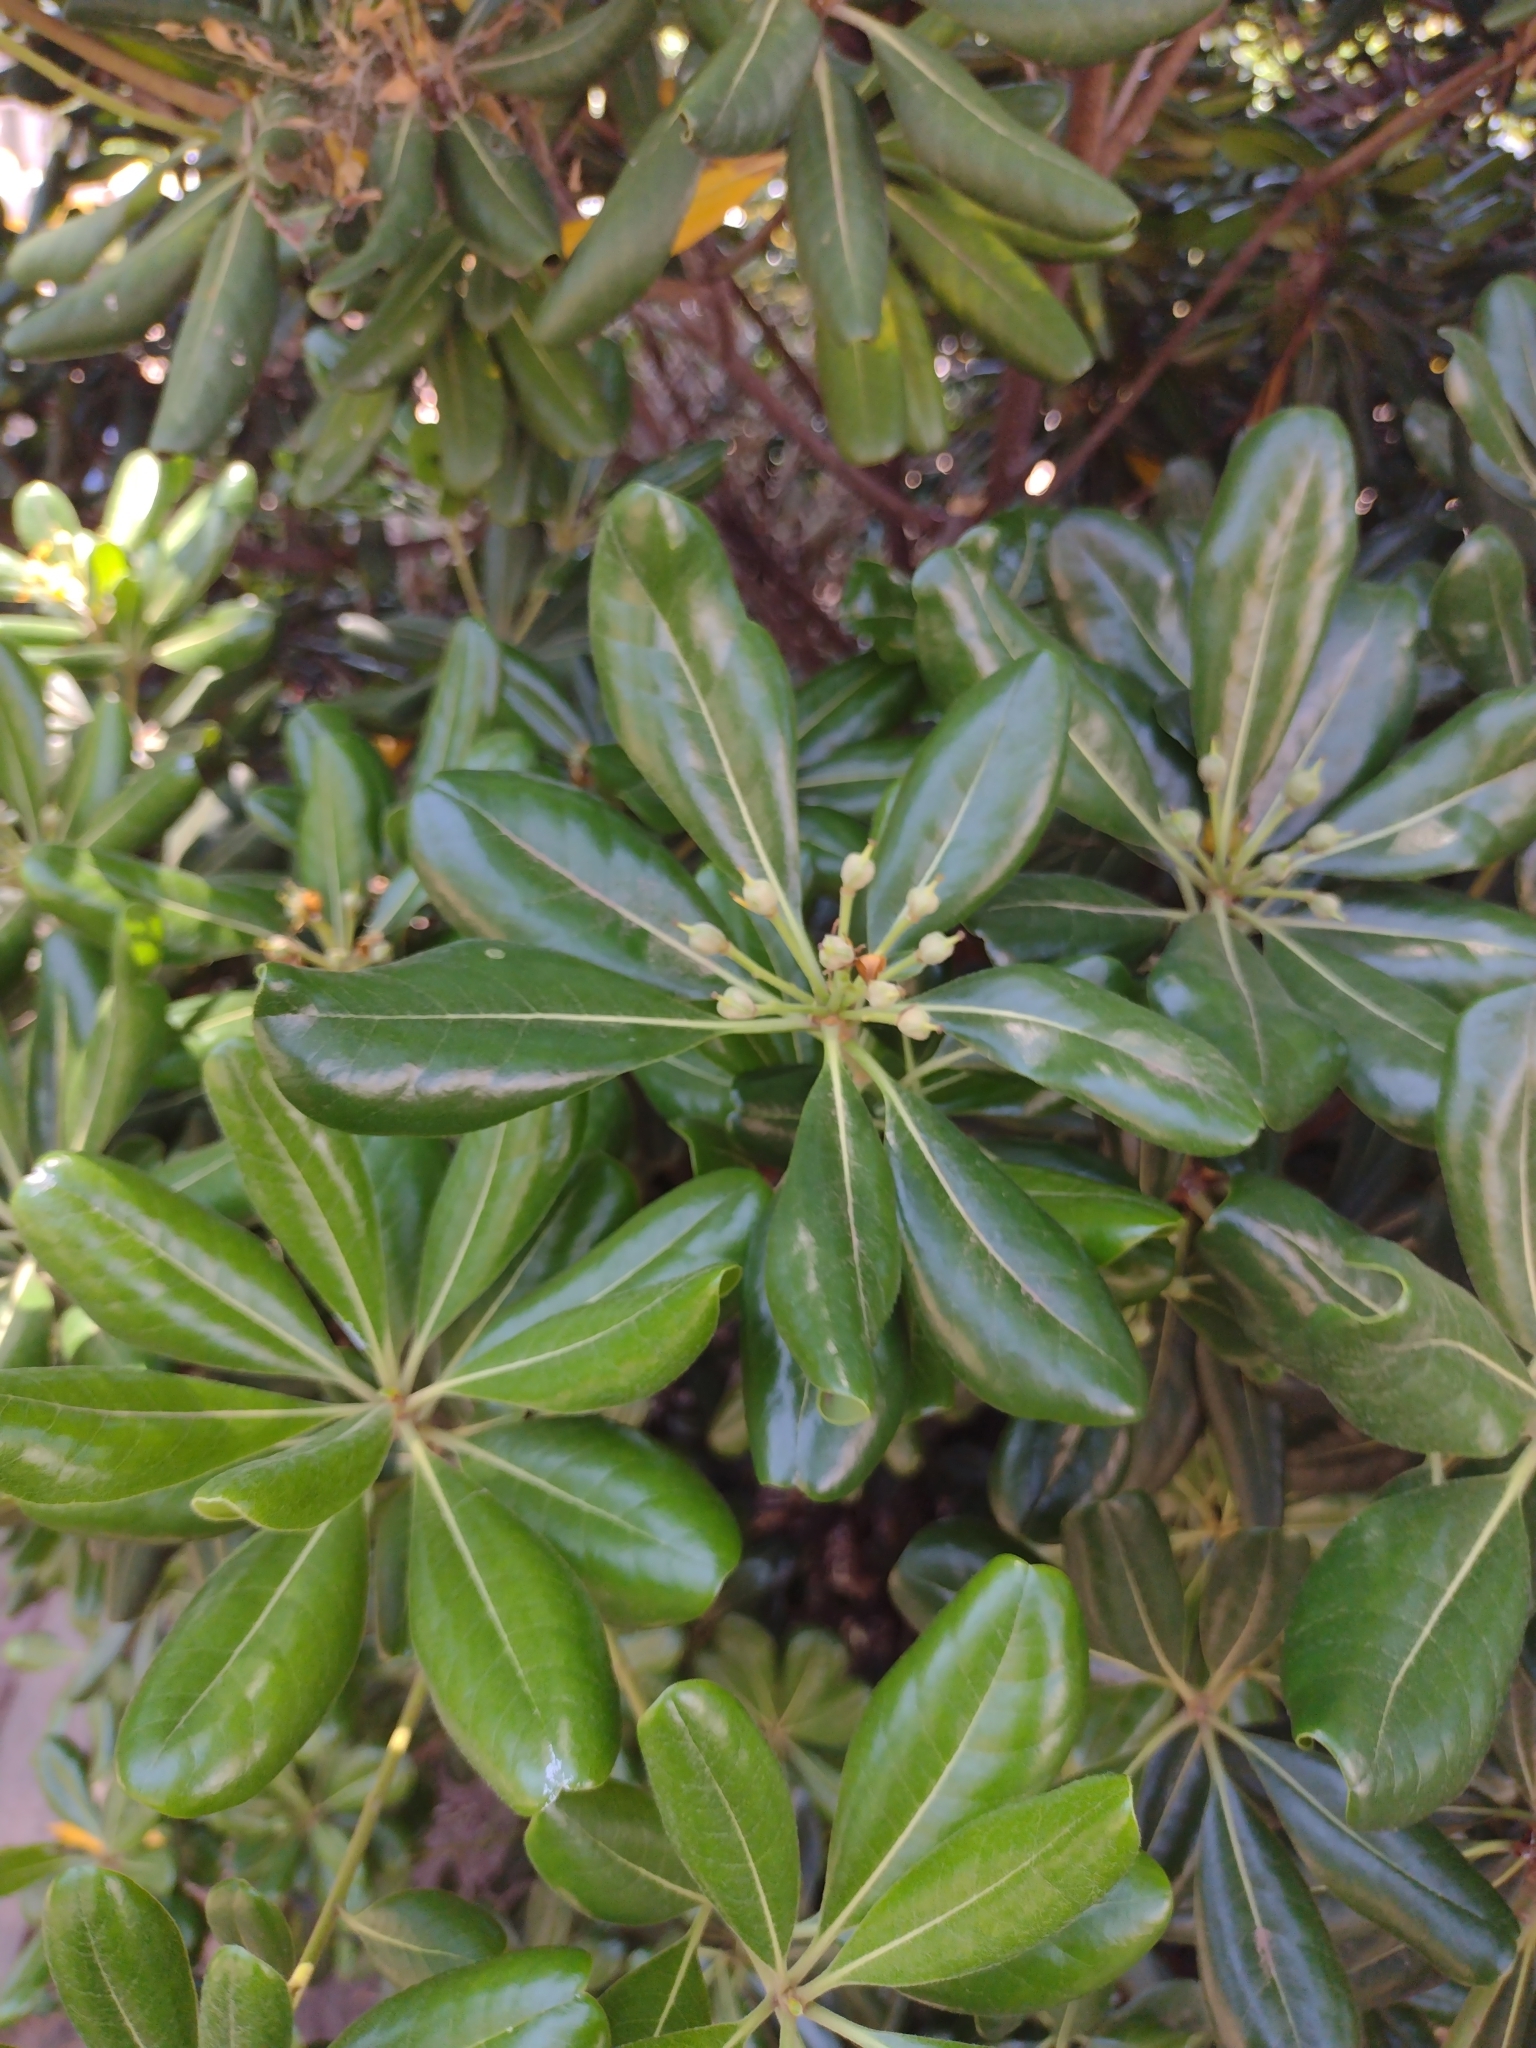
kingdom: Plantae
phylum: Tracheophyta
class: Magnoliopsida
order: Apiales
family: Pittosporaceae
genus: Pittosporum
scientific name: Pittosporum tobira
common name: Japanese cheesewood
